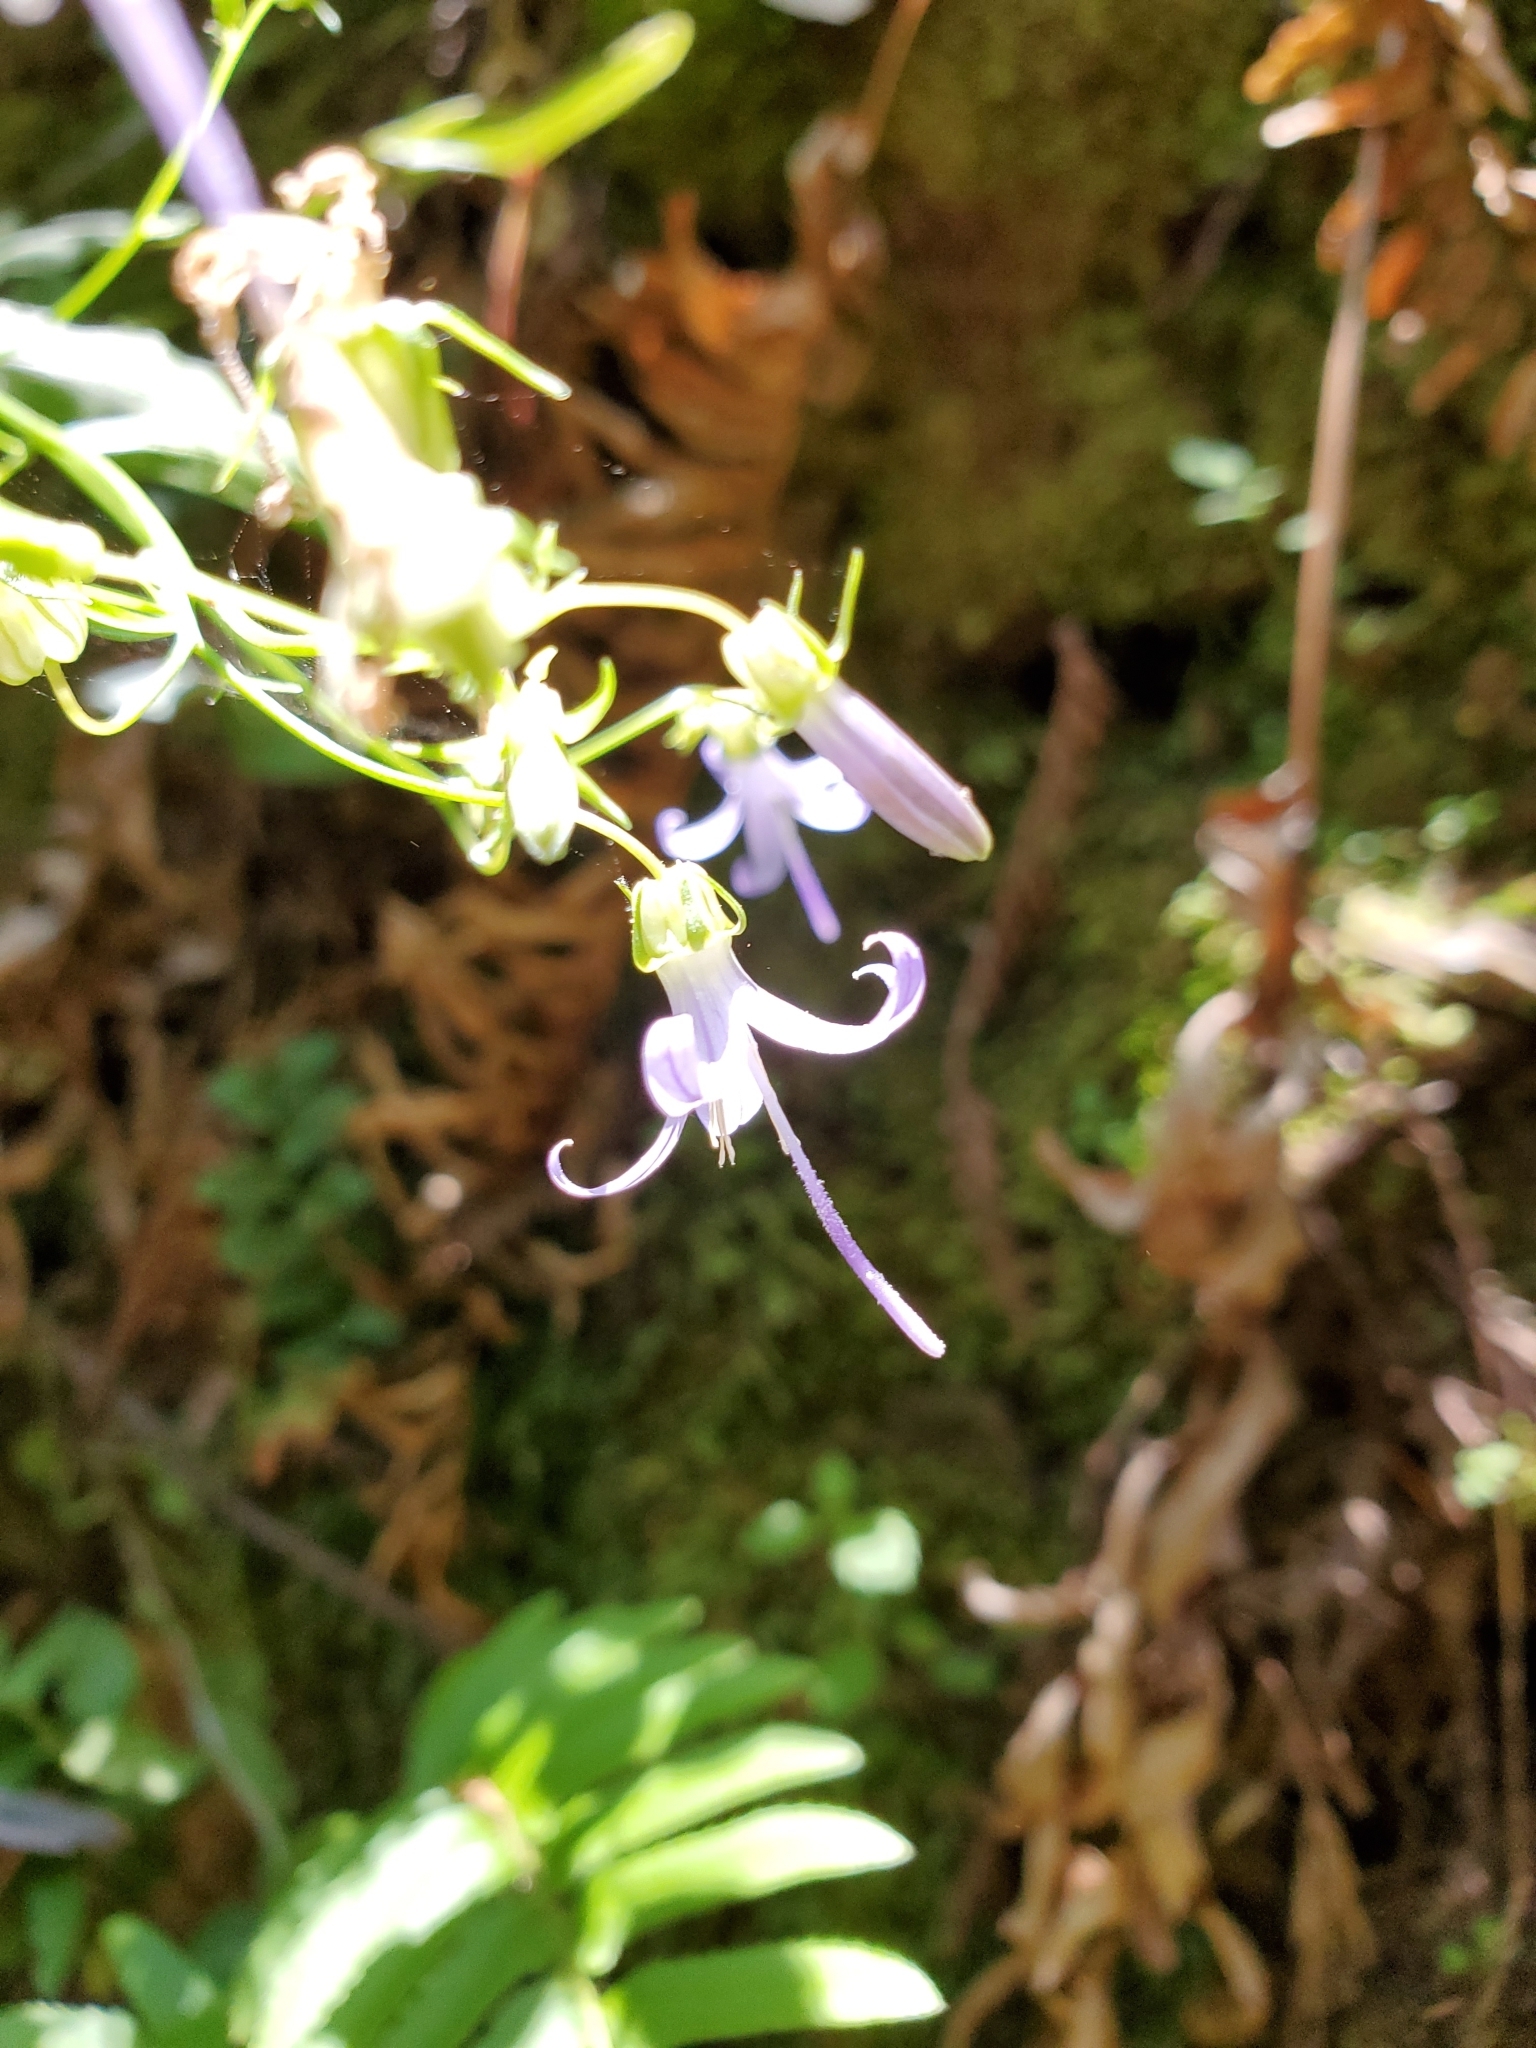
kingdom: Plantae
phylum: Tracheophyta
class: Magnoliopsida
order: Asterales
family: Campanulaceae
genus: Smithiastrum
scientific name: Smithiastrum prenanthoides
